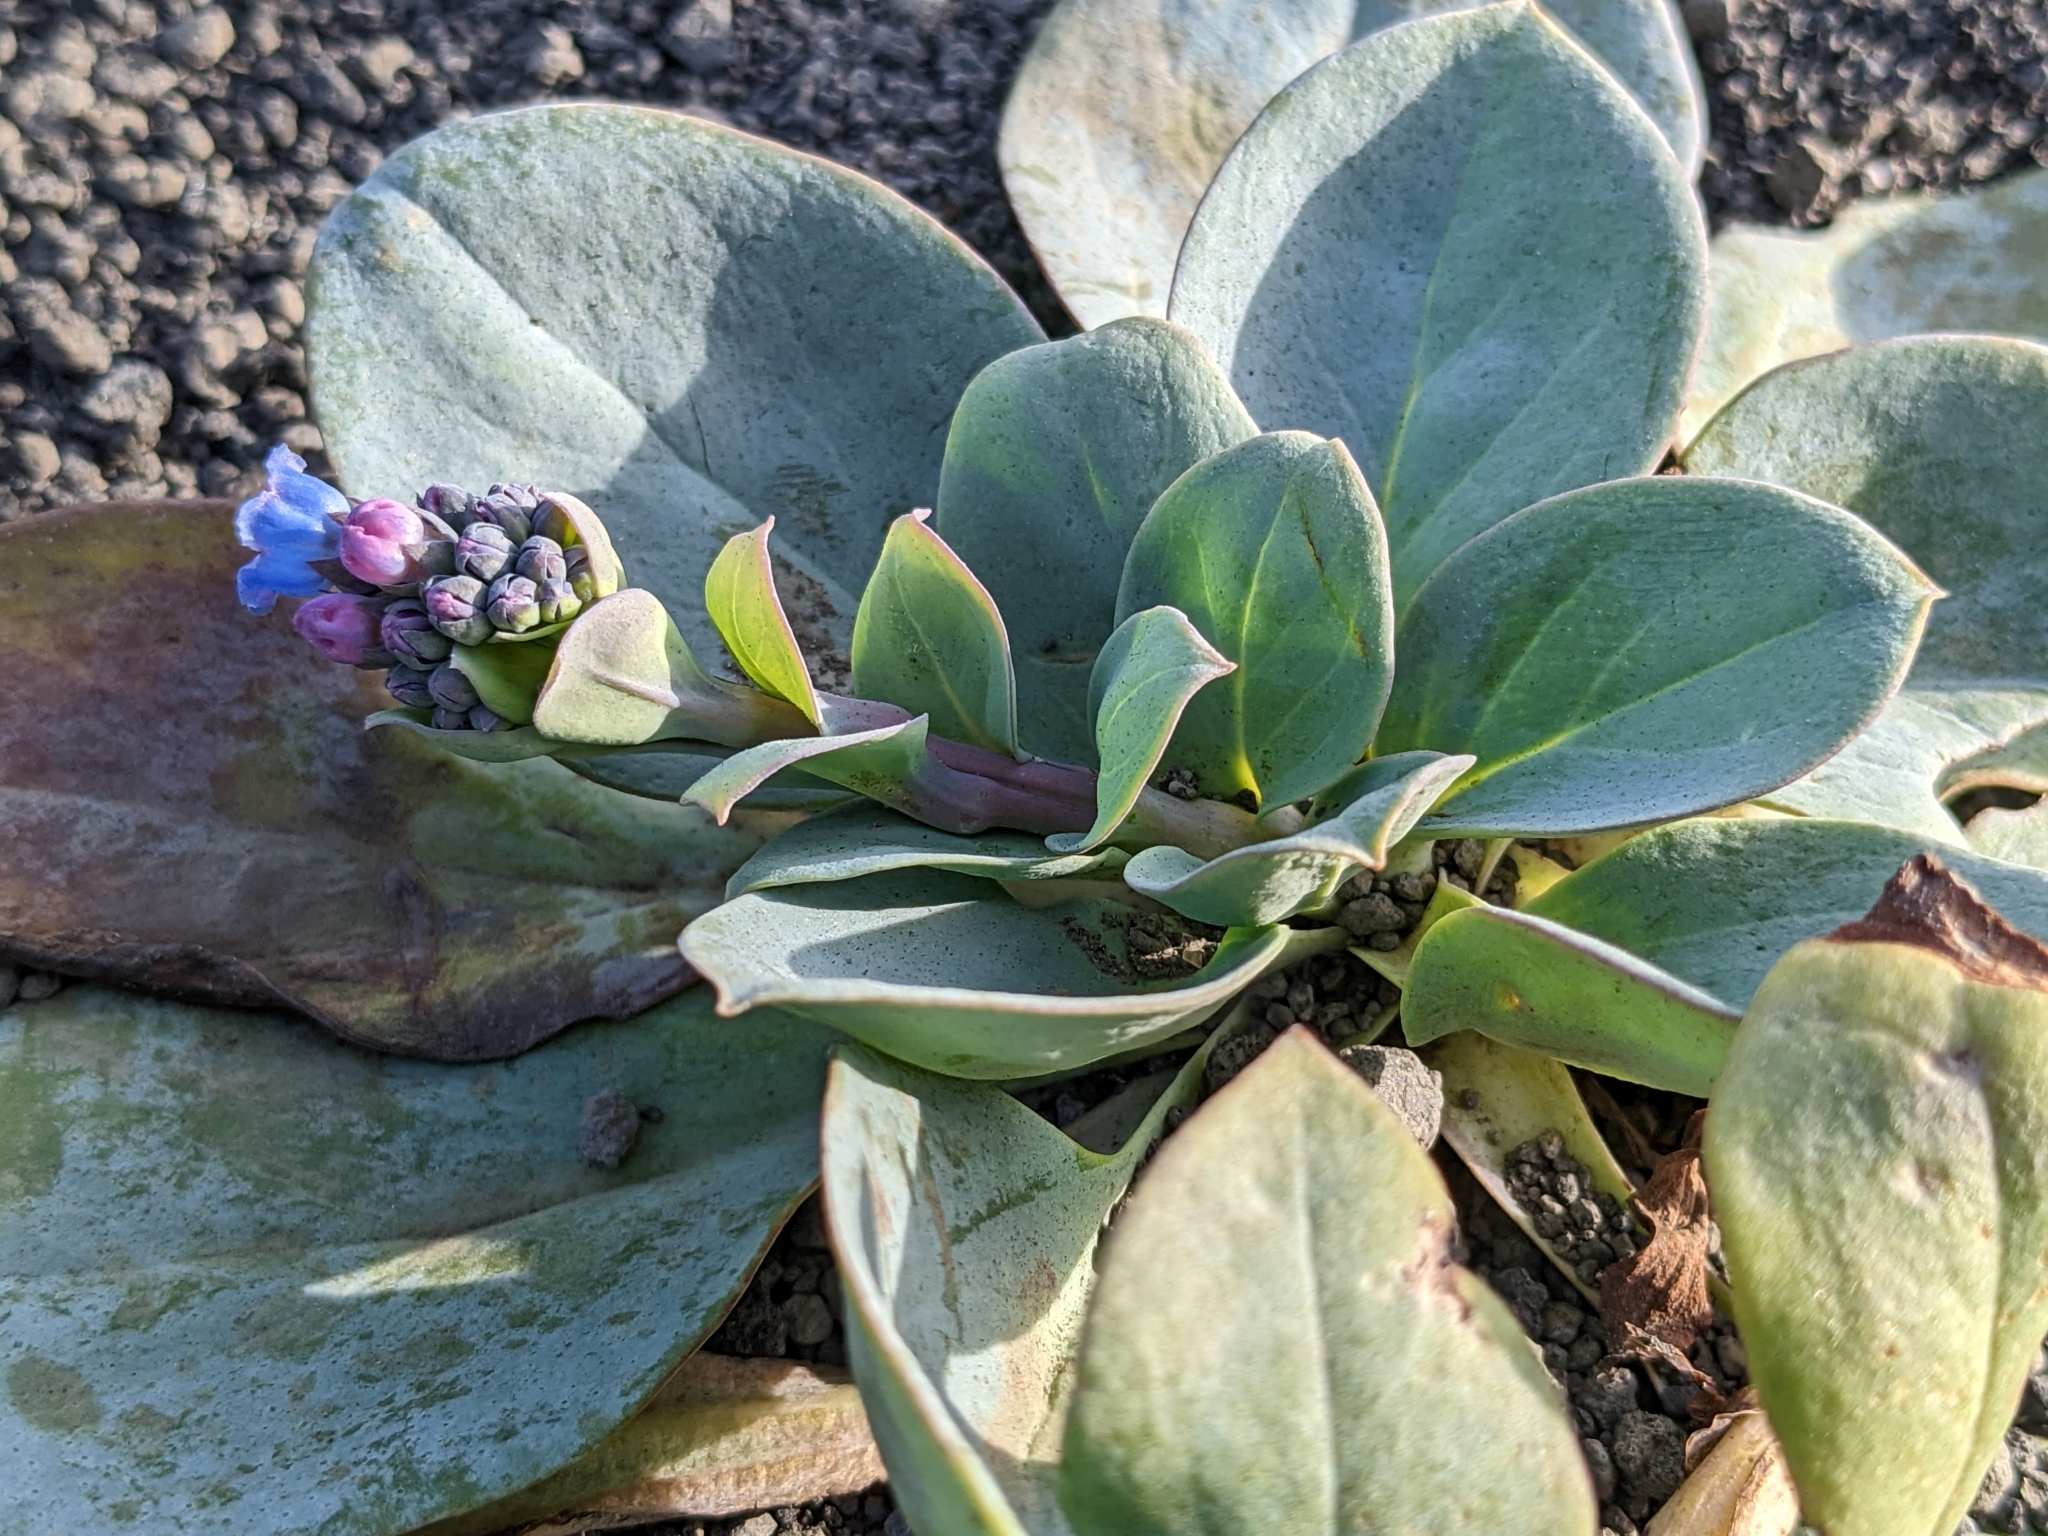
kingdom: Plantae
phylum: Tracheophyta
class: Magnoliopsida
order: Boraginales
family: Boraginaceae
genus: Mertensia
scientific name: Mertensia maritima
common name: Oysterplant
